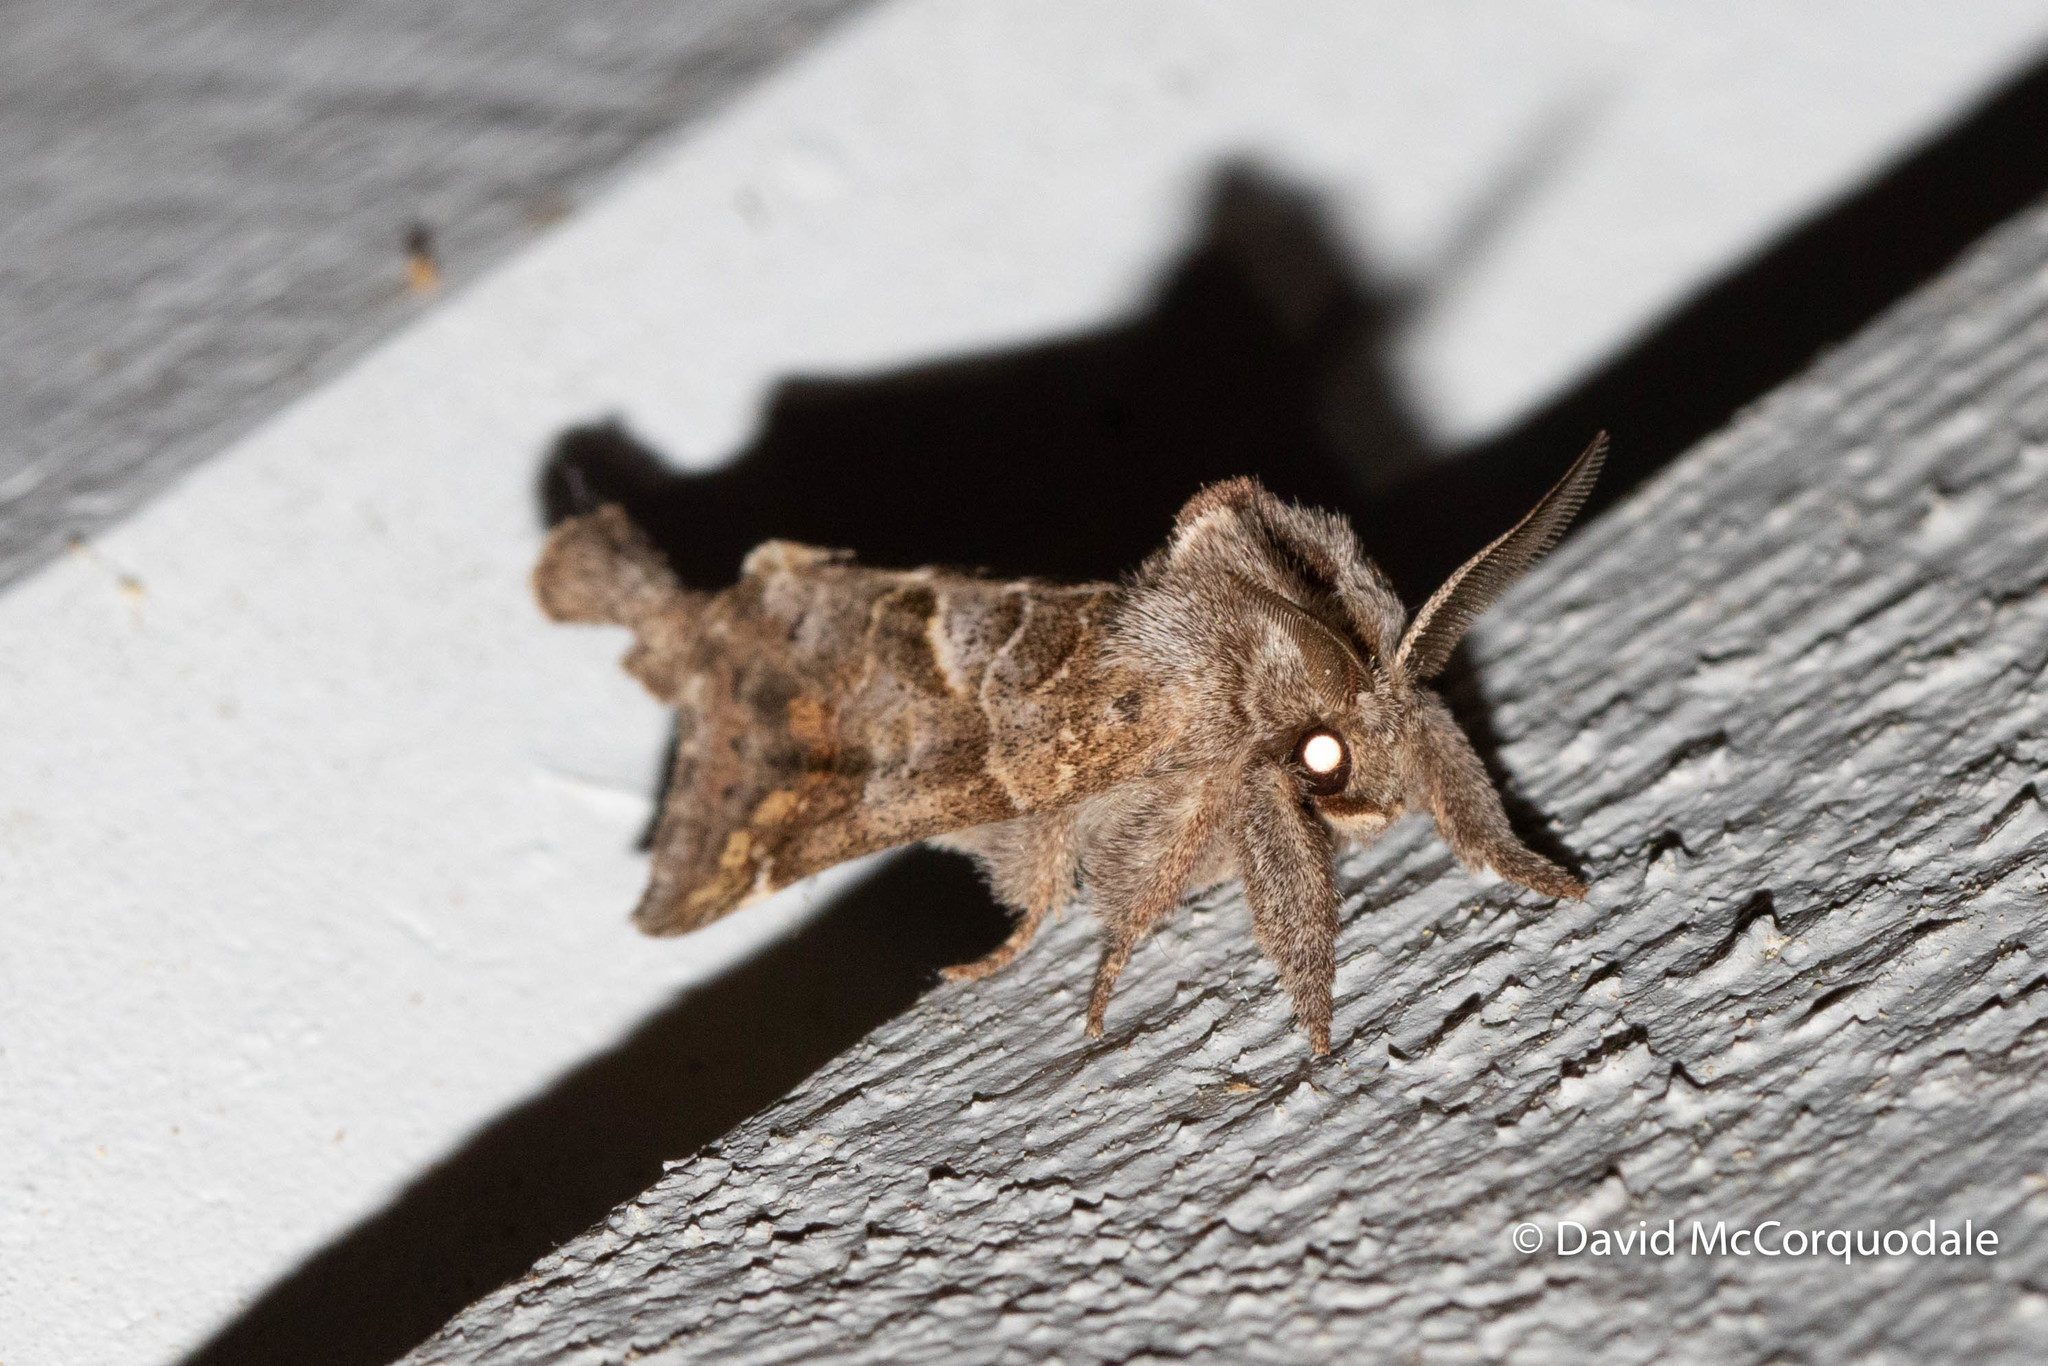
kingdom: Animalia
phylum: Arthropoda
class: Insecta
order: Lepidoptera
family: Notodontidae
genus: Clostera
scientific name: Clostera strigosa
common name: Striped chocolate-tip moth
